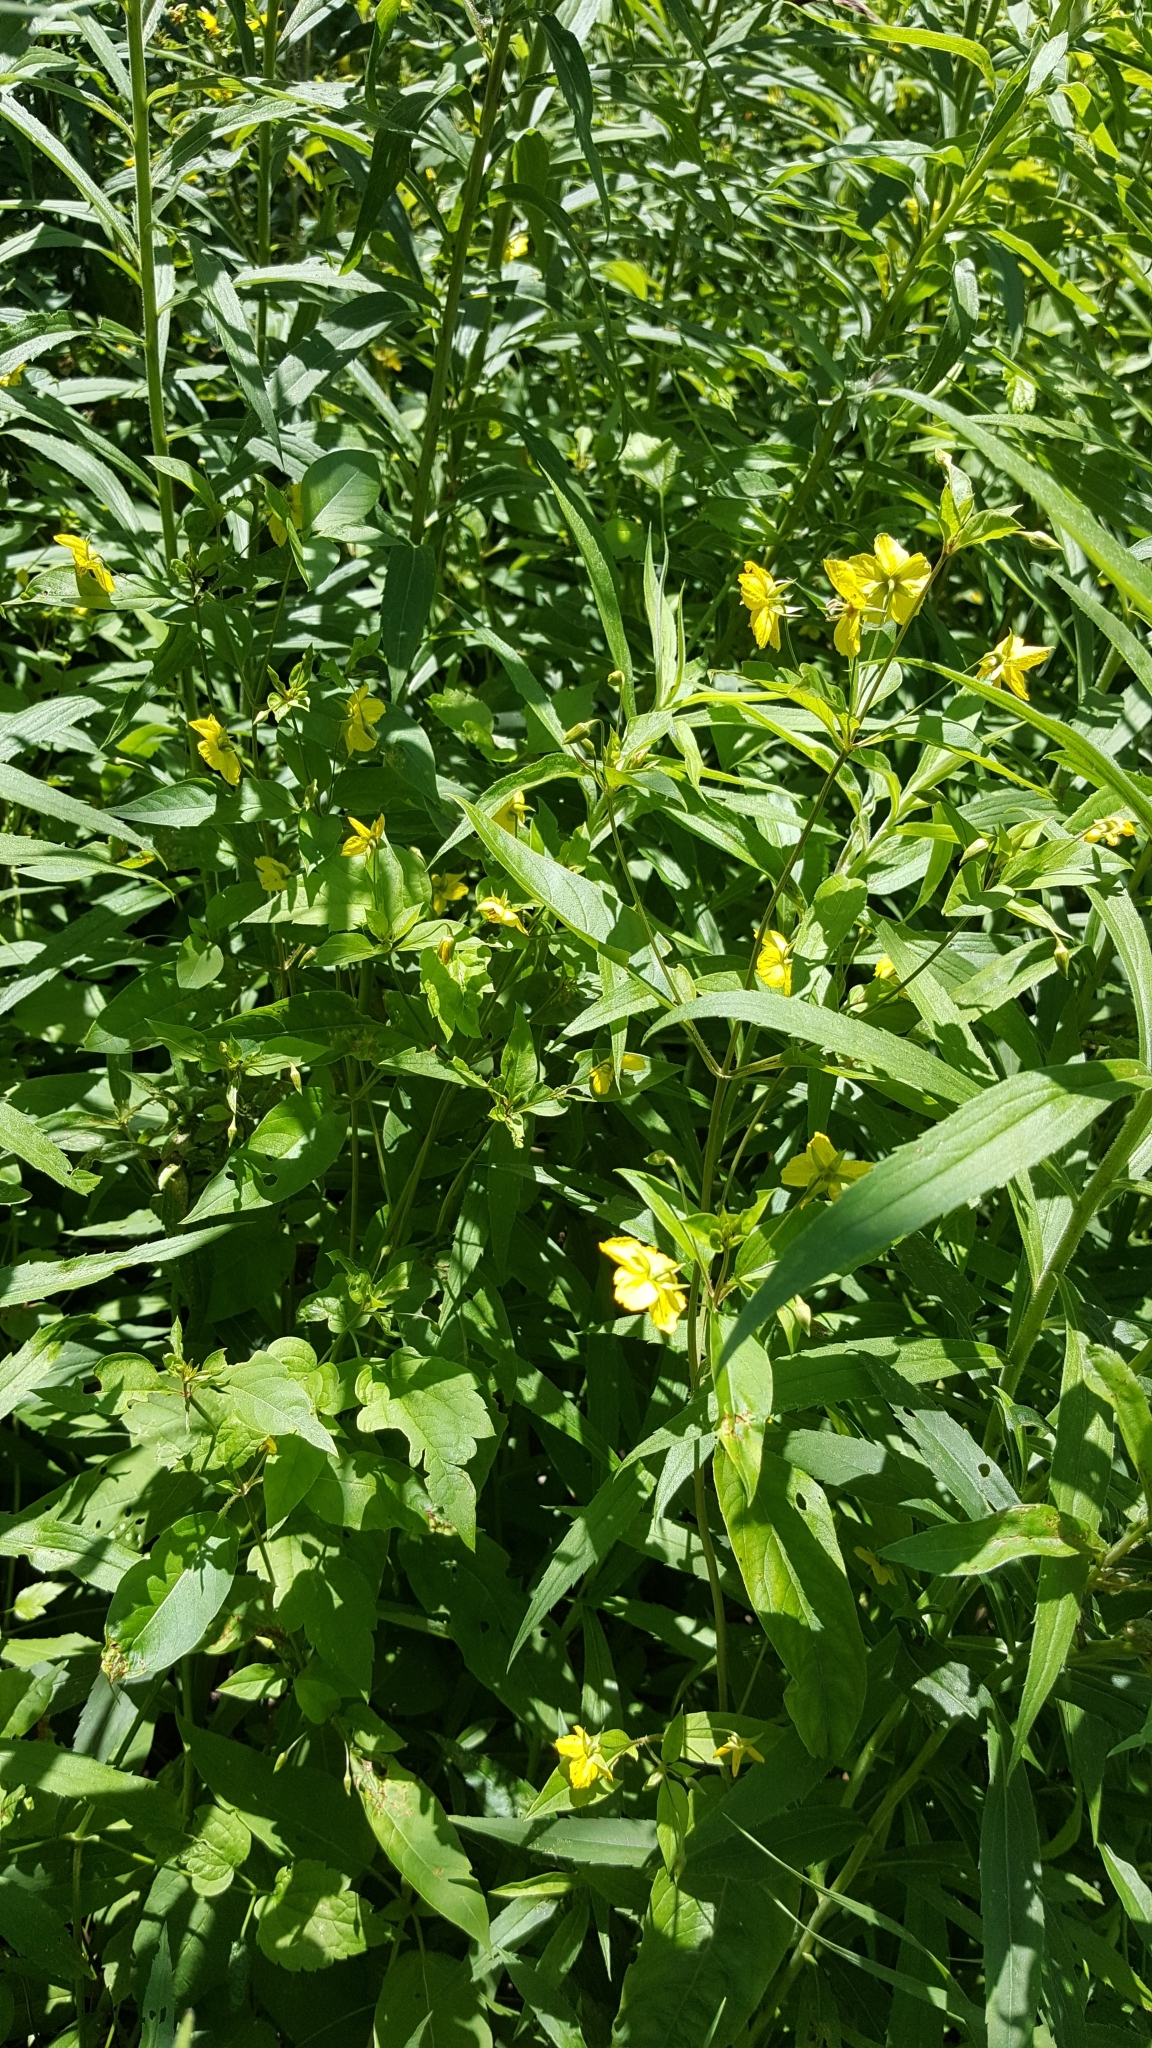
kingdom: Plantae
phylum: Tracheophyta
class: Magnoliopsida
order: Ericales
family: Primulaceae
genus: Lysimachia
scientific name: Lysimachia ciliata
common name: Fringed loosestrife
